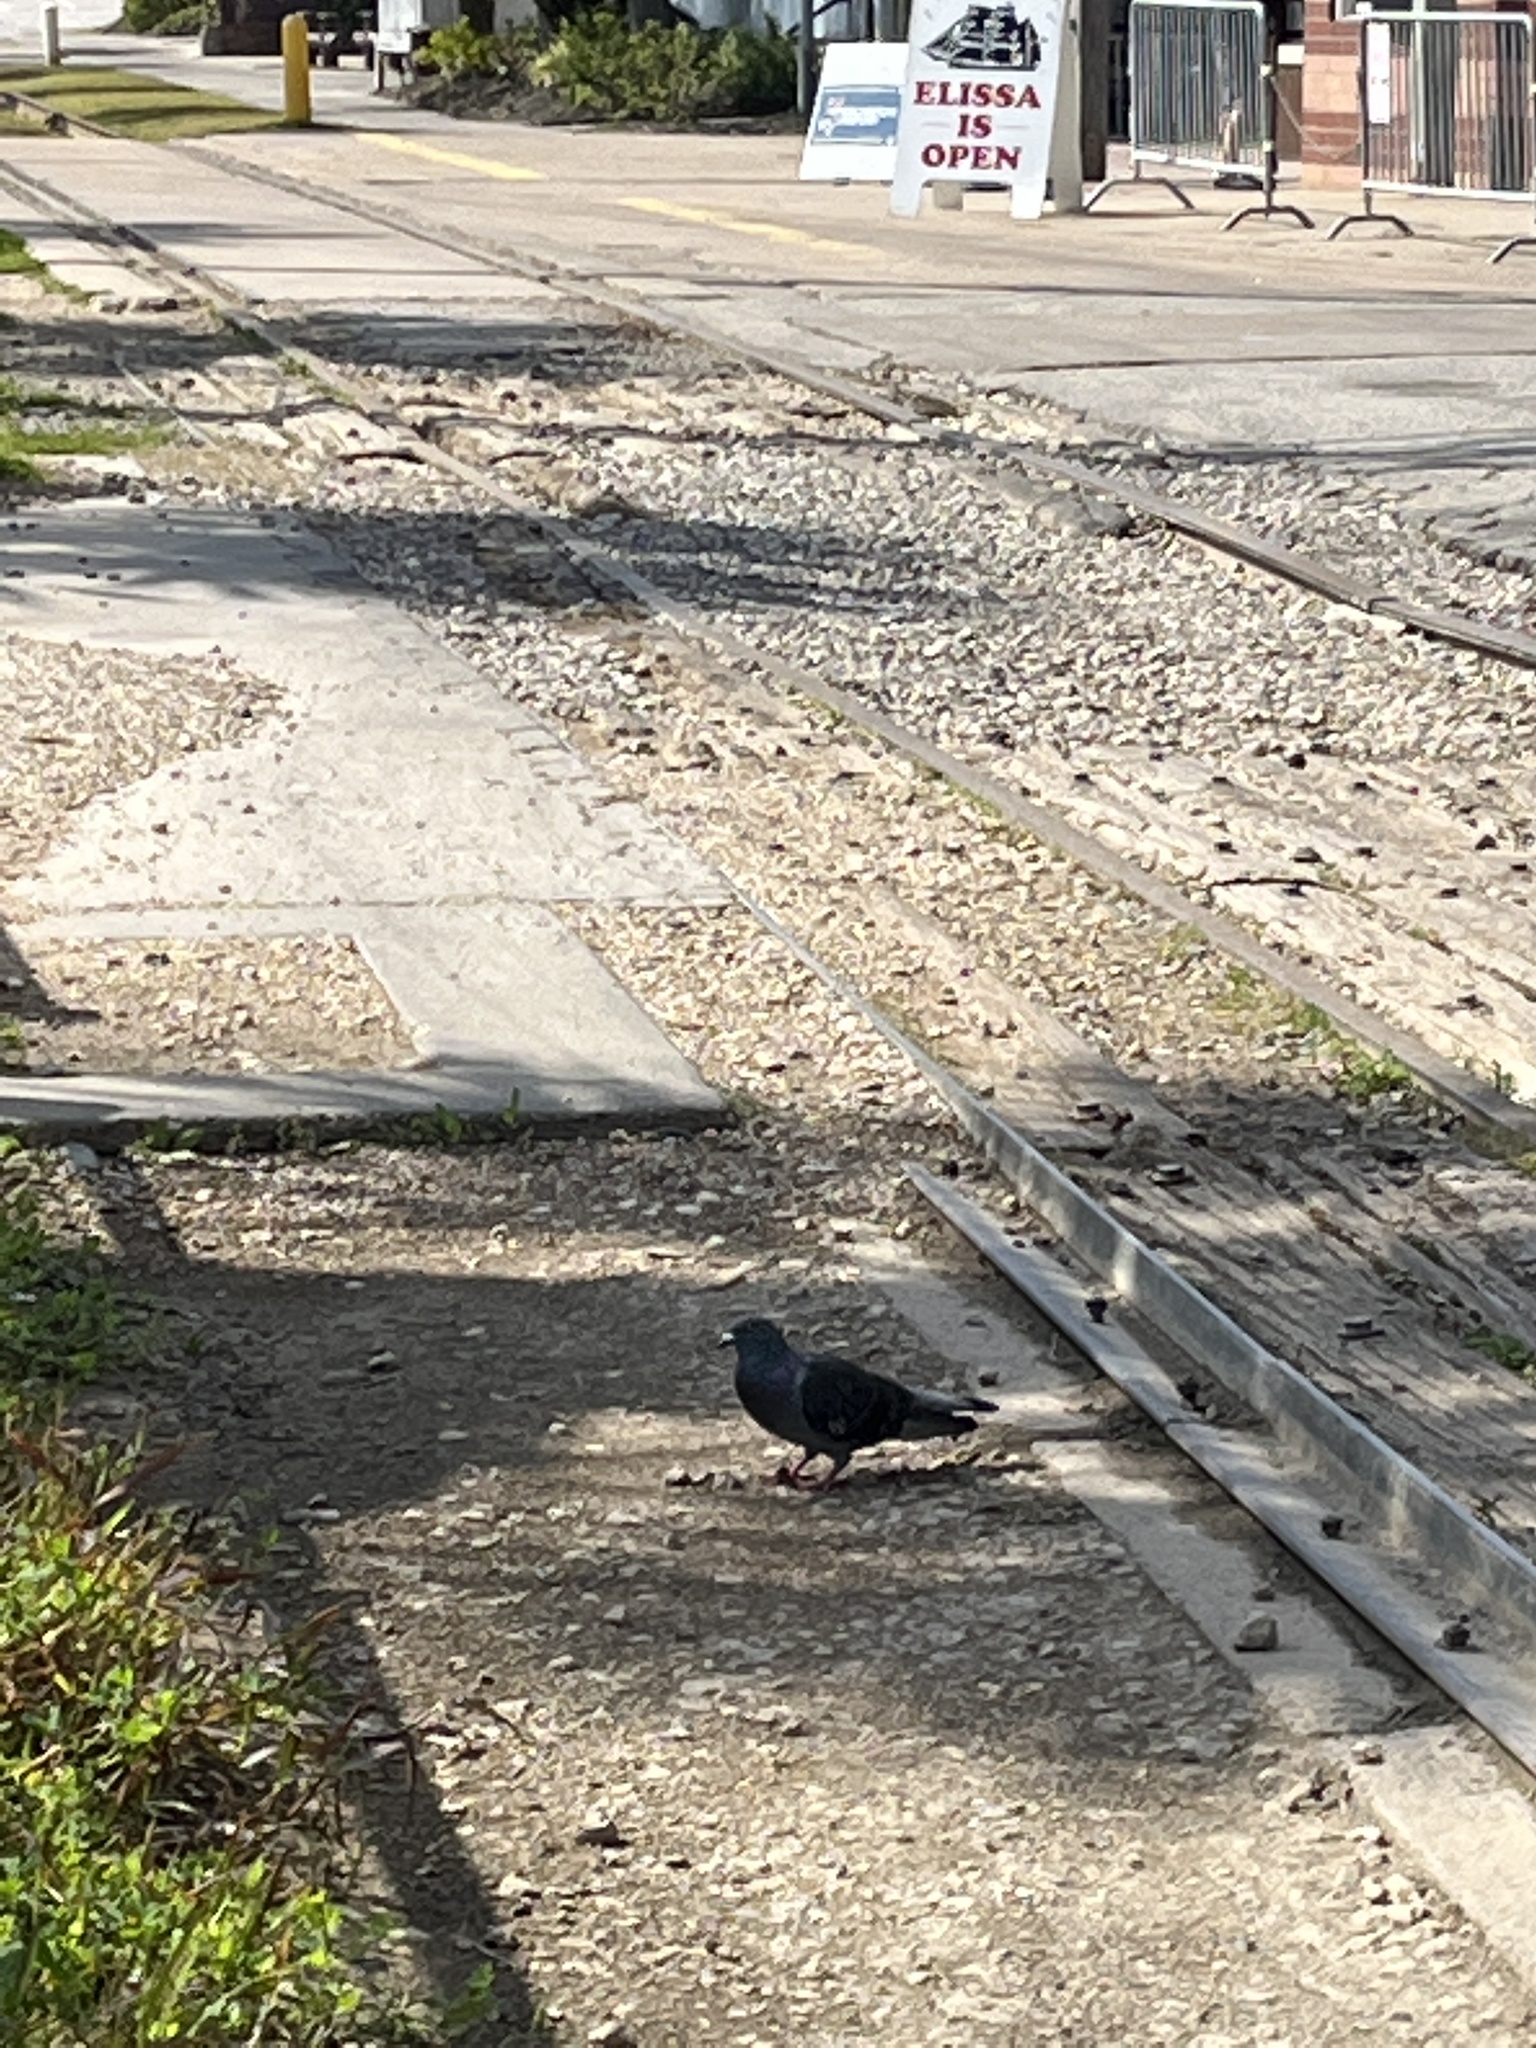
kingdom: Animalia
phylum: Chordata
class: Aves
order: Columbiformes
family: Columbidae
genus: Columba
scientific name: Columba livia
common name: Rock pigeon
